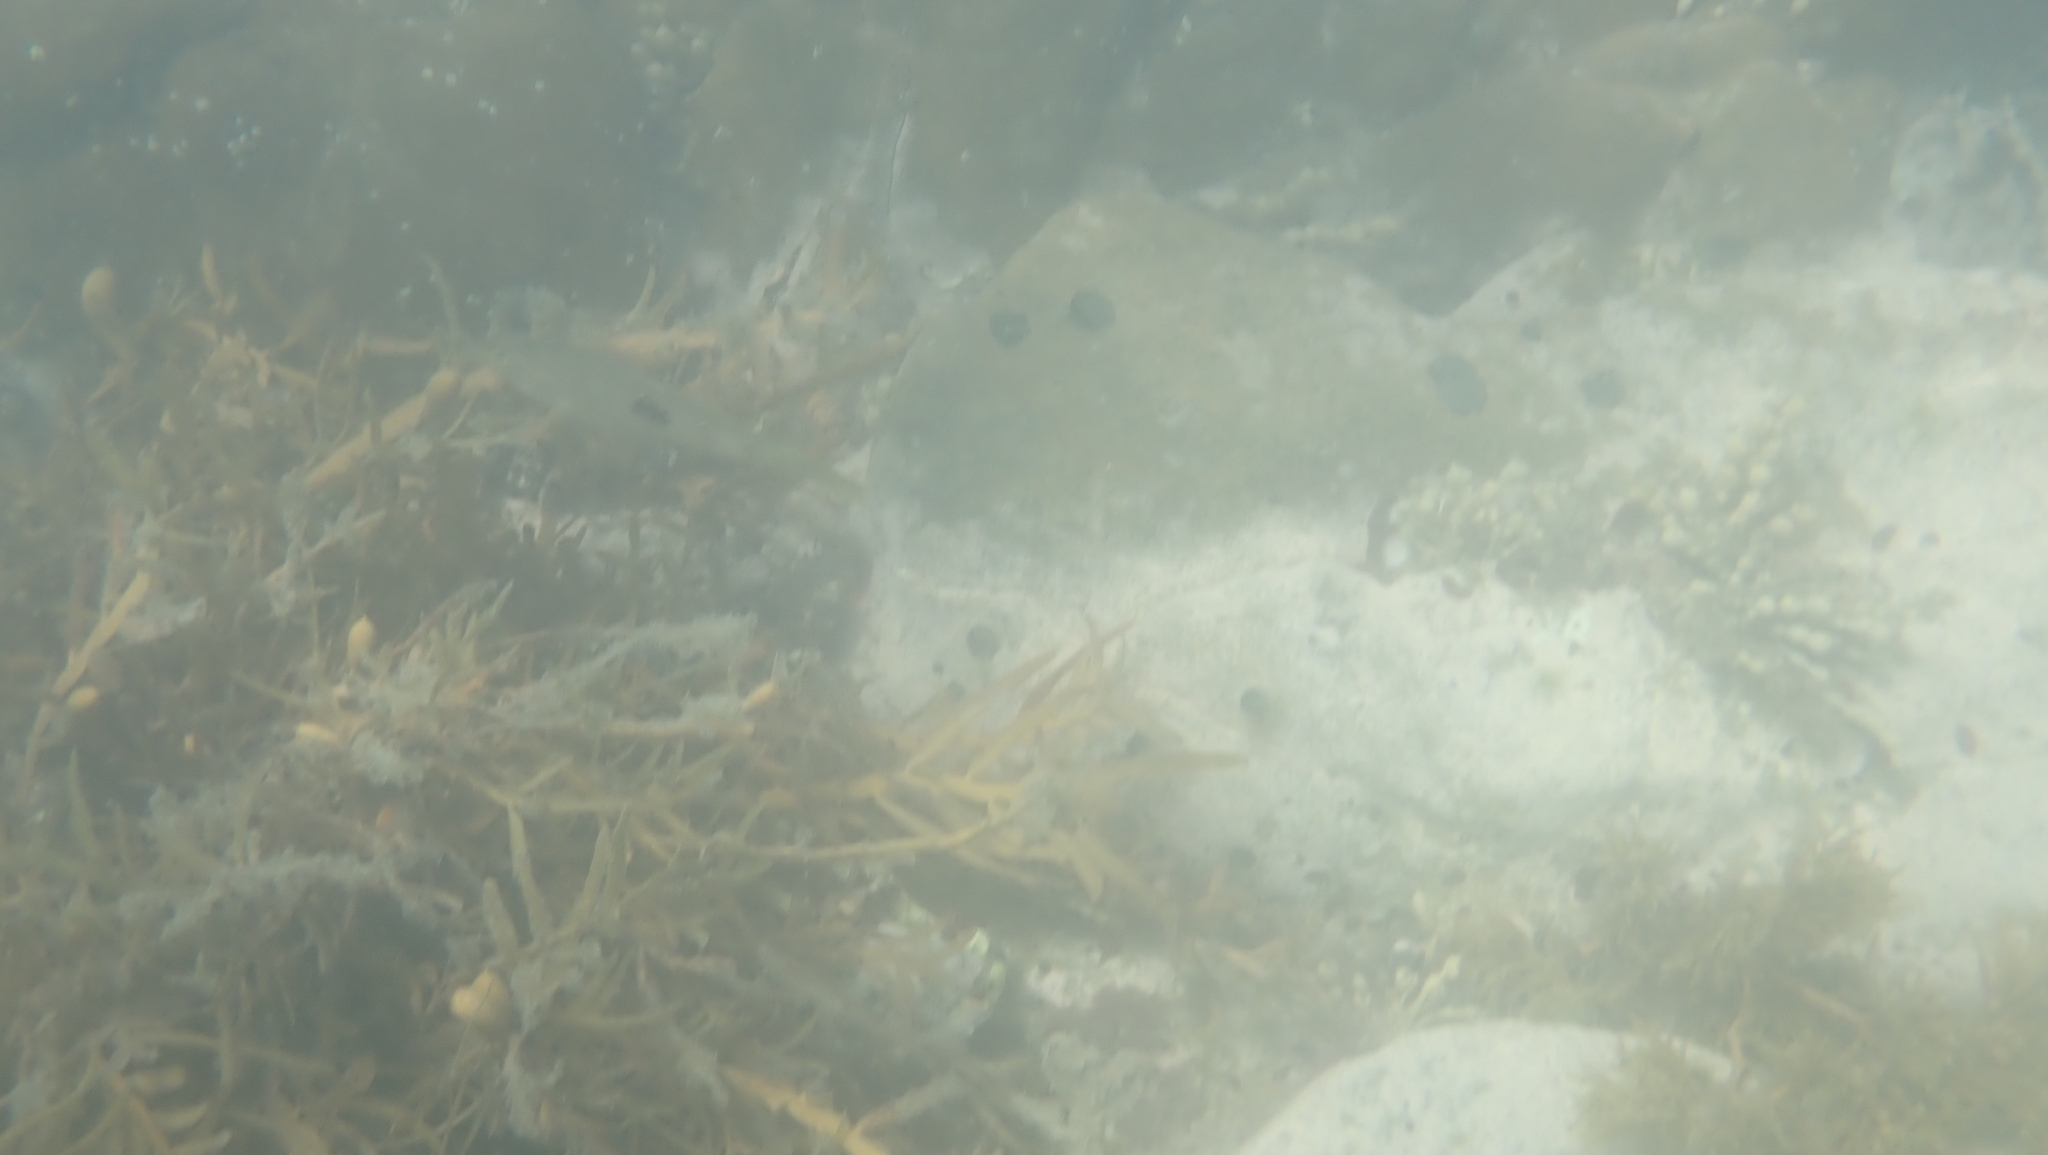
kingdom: Animalia
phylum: Chordata
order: Perciformes
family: Labridae
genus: Notolabrus
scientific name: Notolabrus celidotus
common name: Spotty
